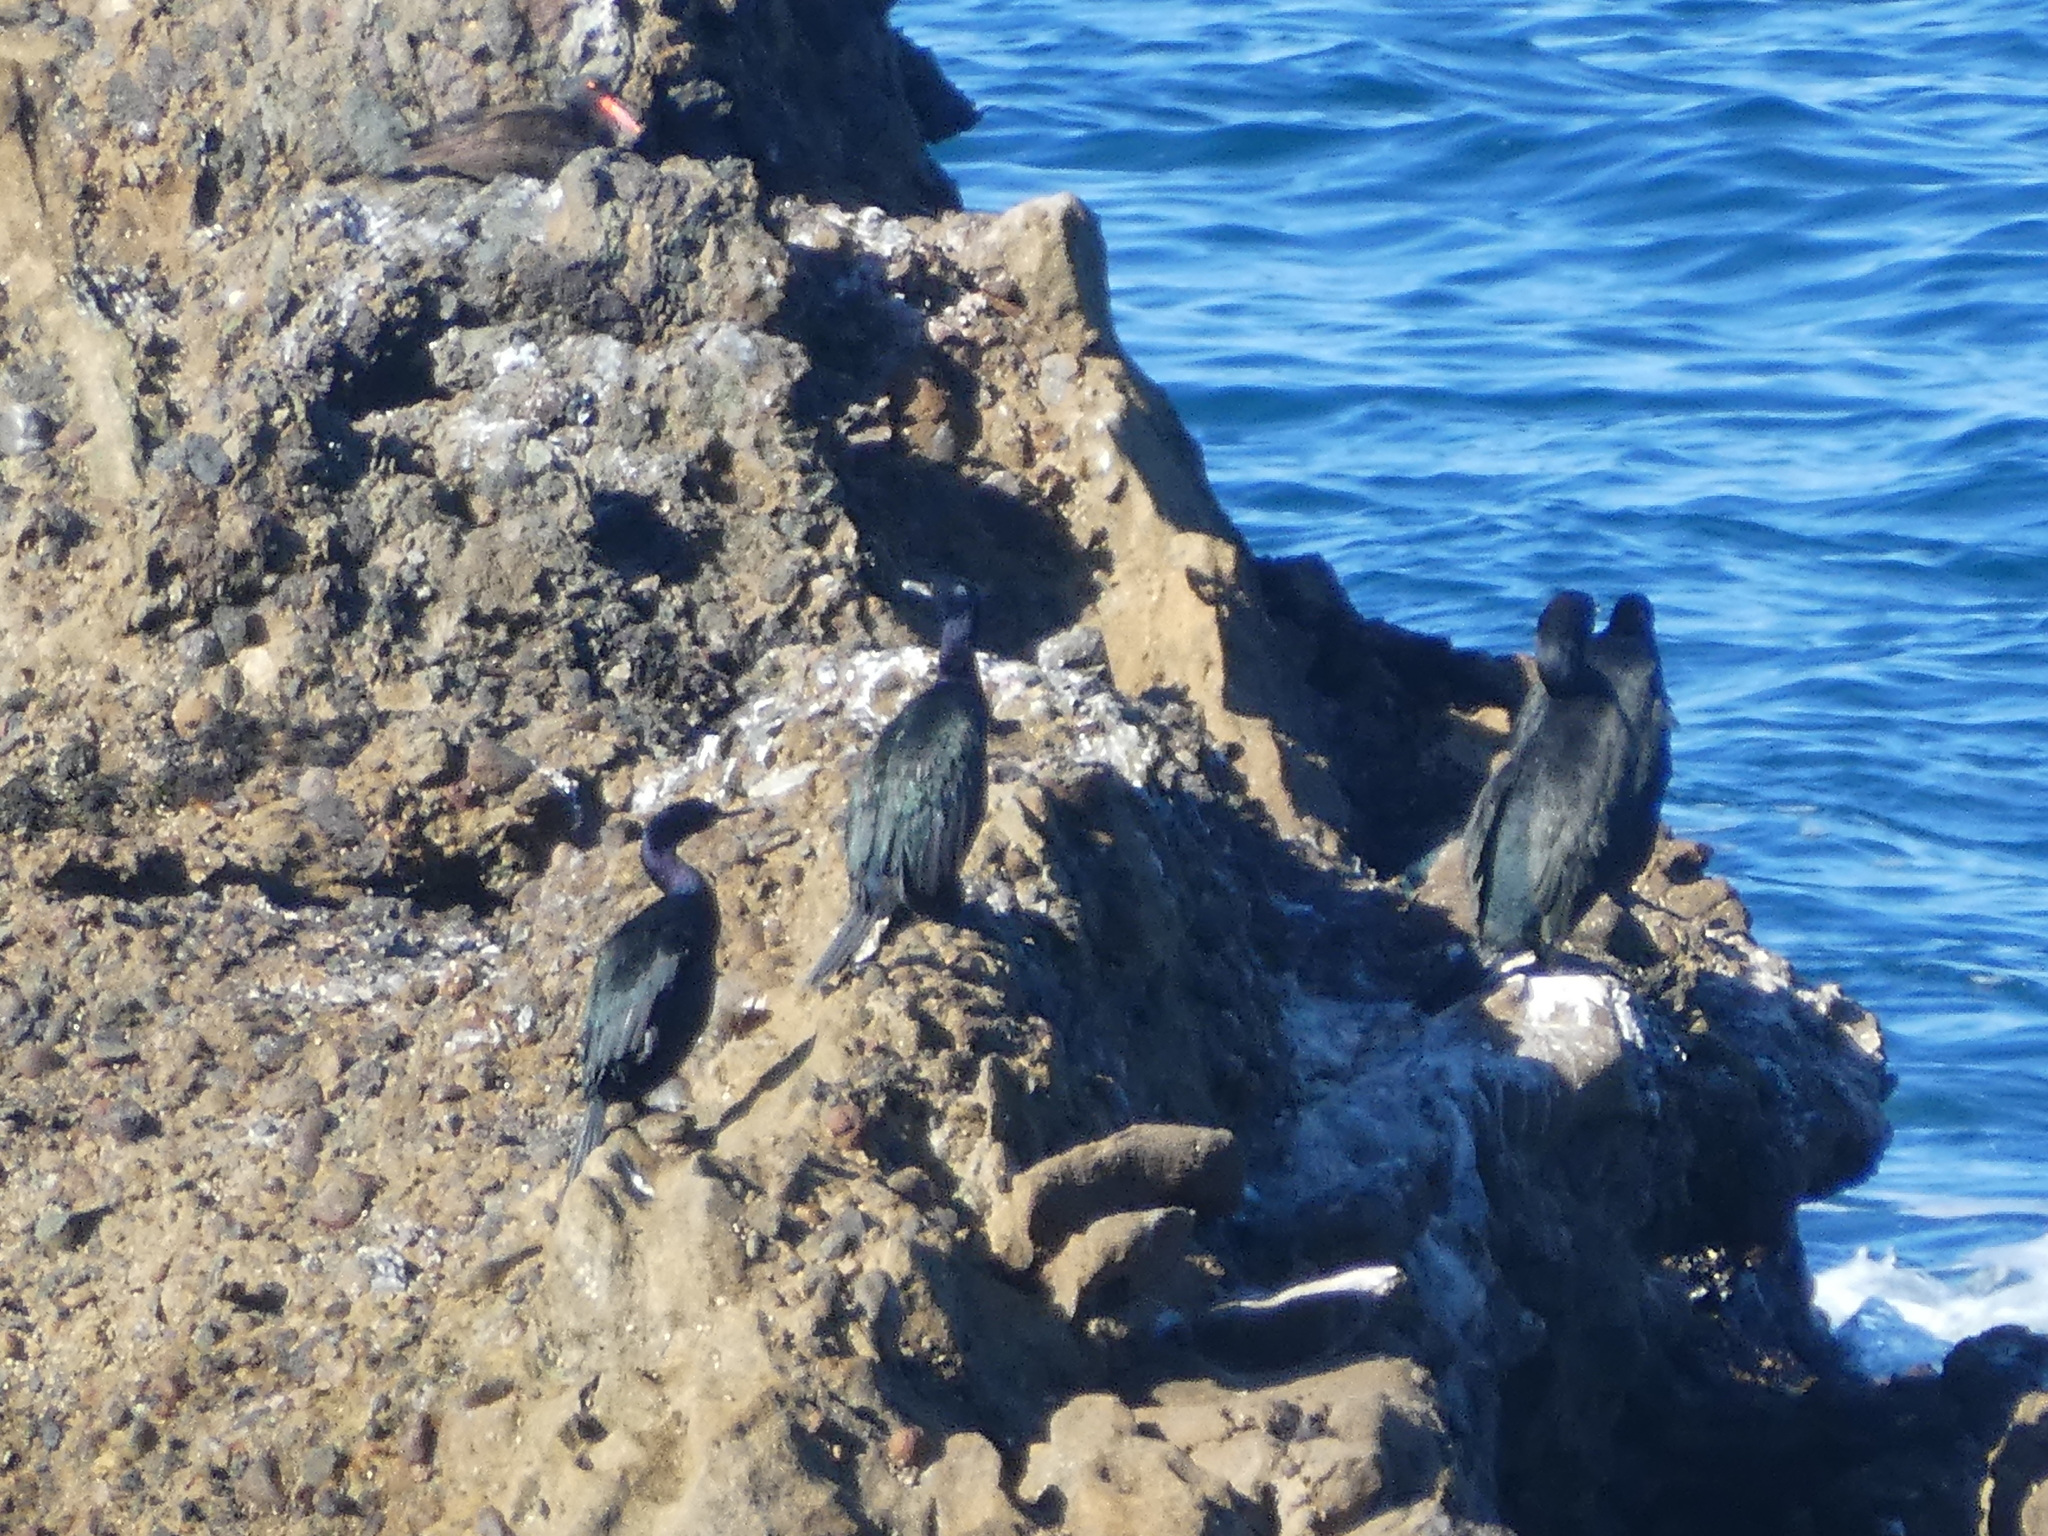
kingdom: Animalia
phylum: Chordata
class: Aves
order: Suliformes
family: Phalacrocoracidae
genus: Urile
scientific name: Urile penicillatus
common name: Brandt's cormorant
